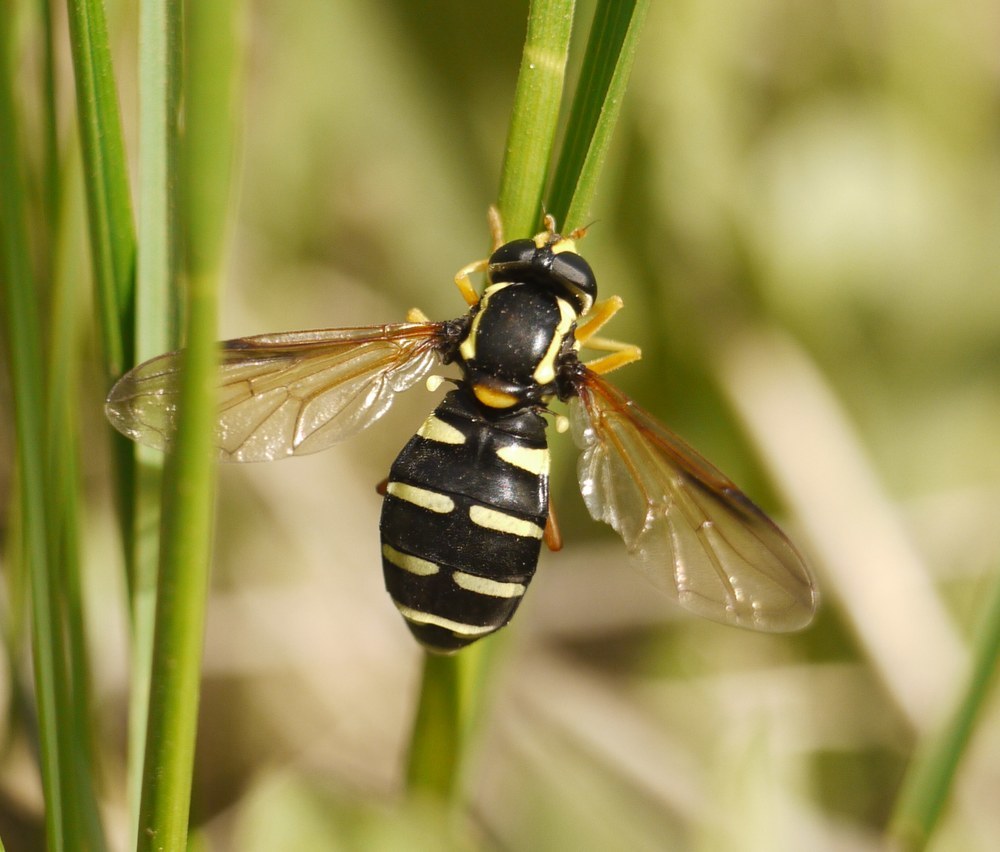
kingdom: Animalia
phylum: Arthropoda
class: Insecta
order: Diptera
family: Syrphidae
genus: Philhelius
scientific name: Philhelius citrofasciata
